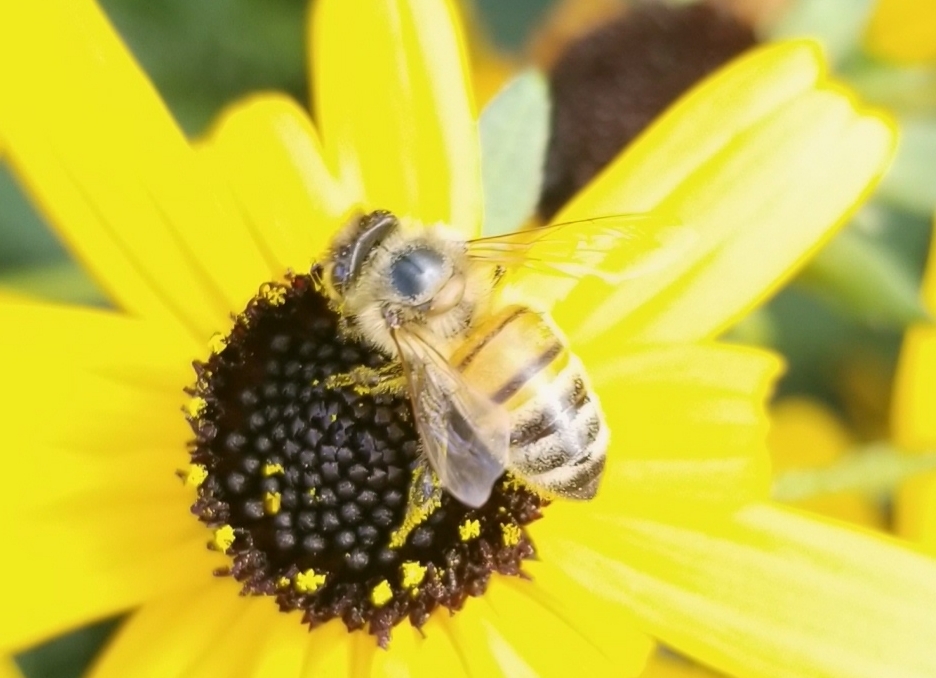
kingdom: Animalia
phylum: Arthropoda
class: Insecta
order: Hymenoptera
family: Apidae
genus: Apis
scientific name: Apis mellifera
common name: Honey bee
